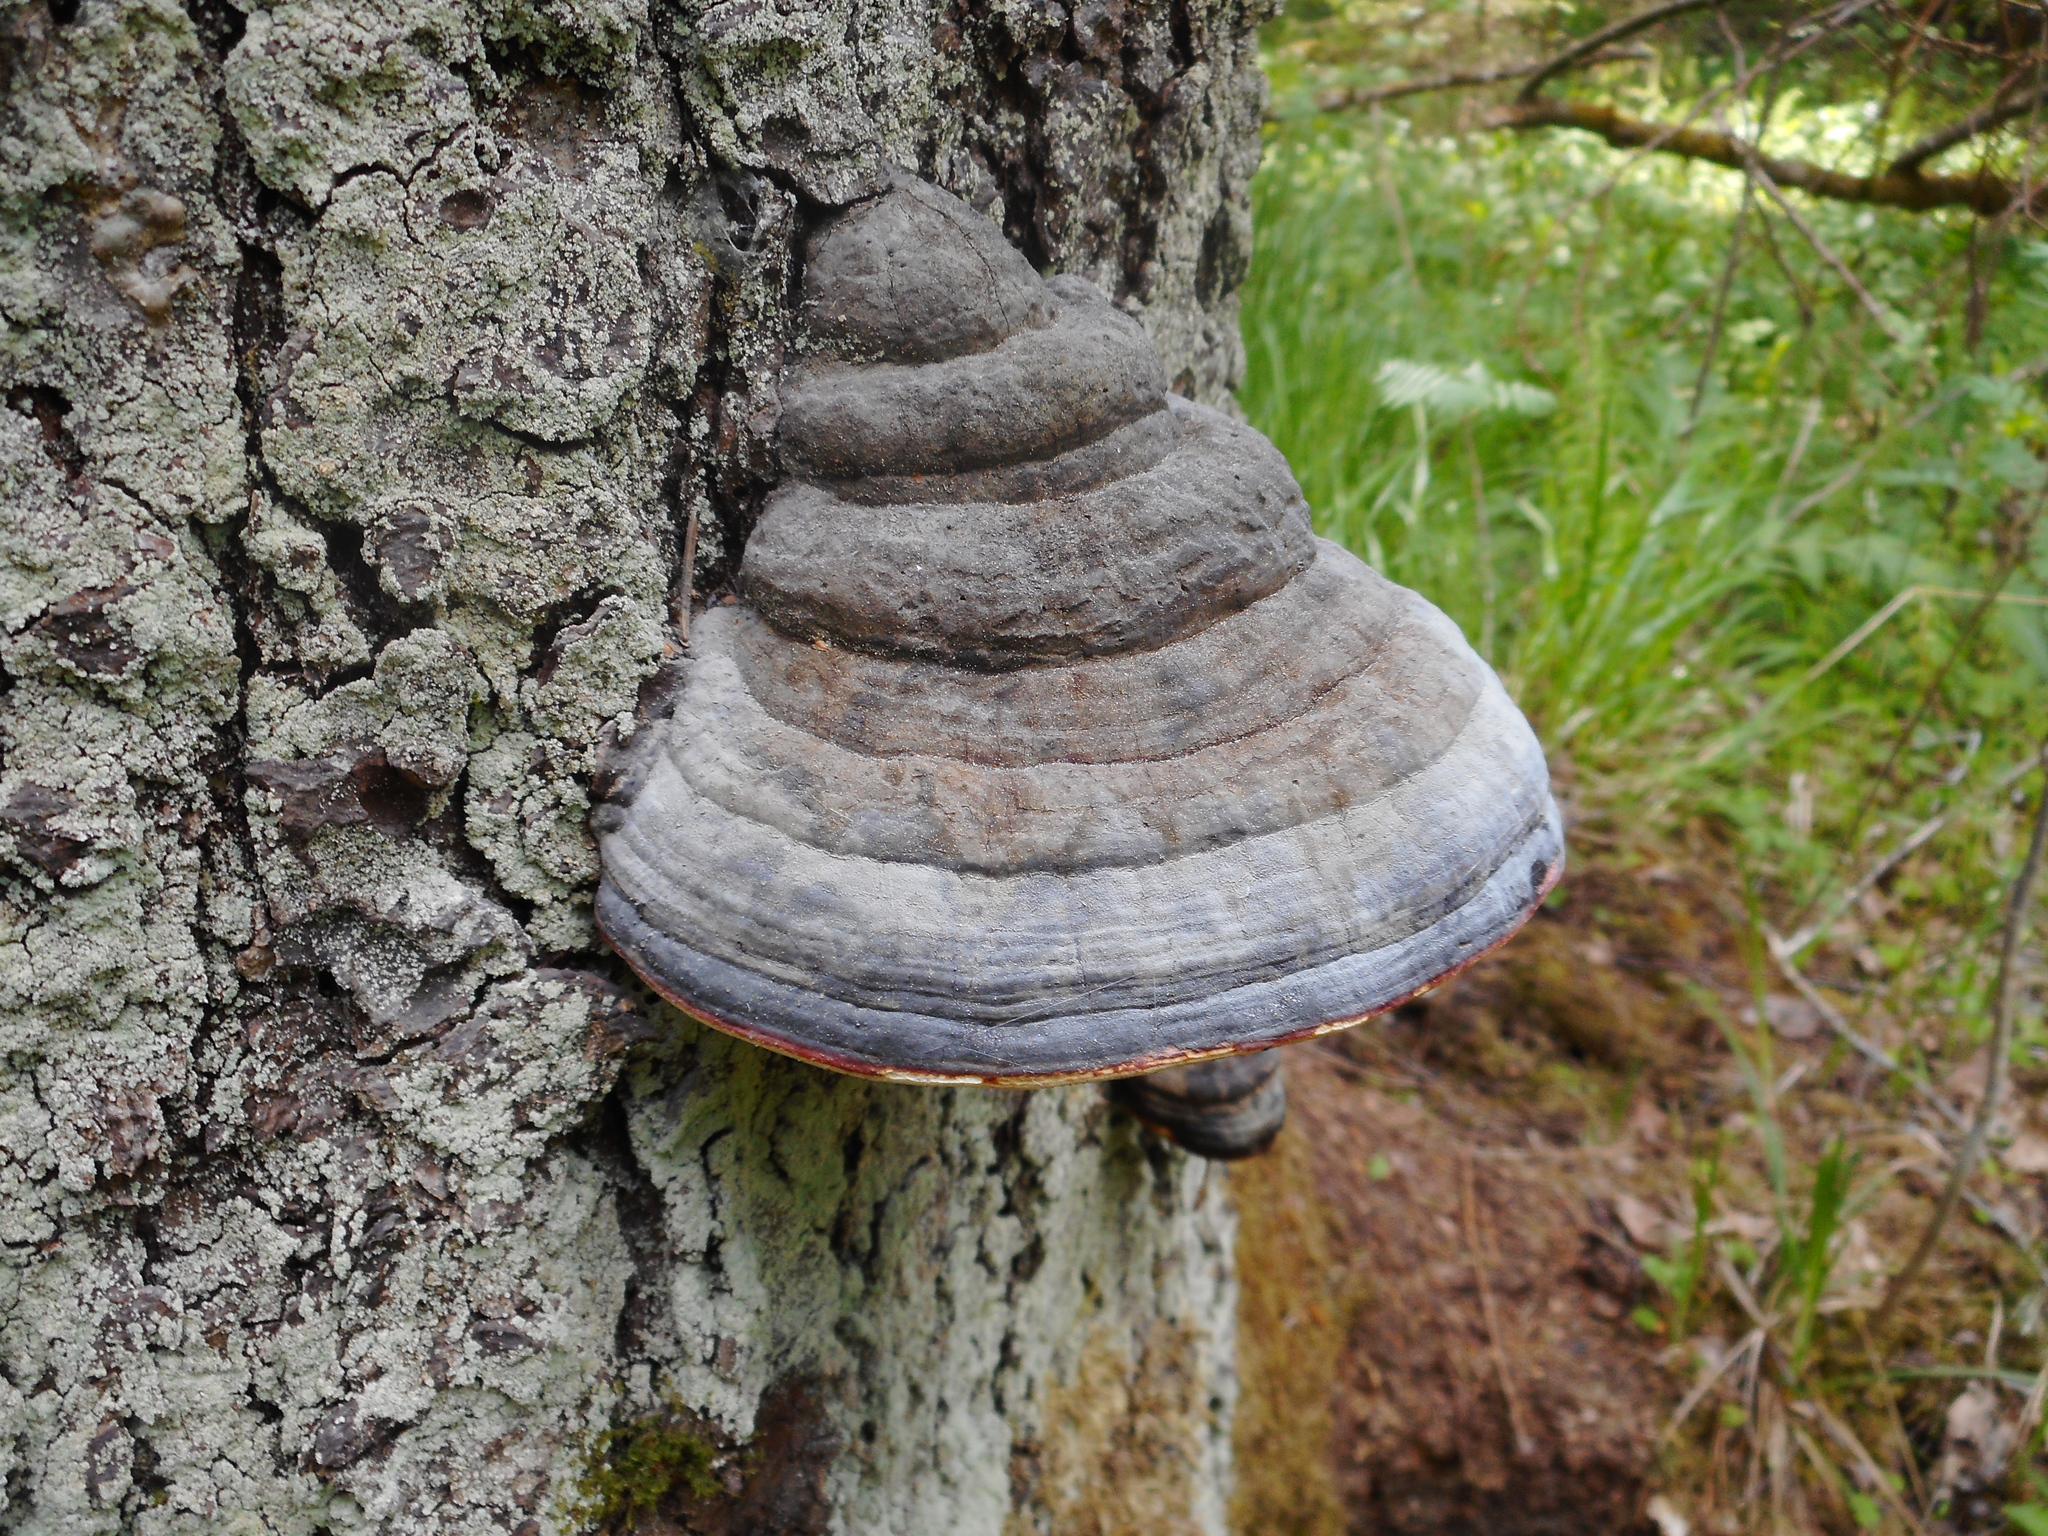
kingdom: Fungi
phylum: Basidiomycota
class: Agaricomycetes
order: Polyporales
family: Fomitopsidaceae
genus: Fomitopsis
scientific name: Fomitopsis pinicola
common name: Red-belted bracket
